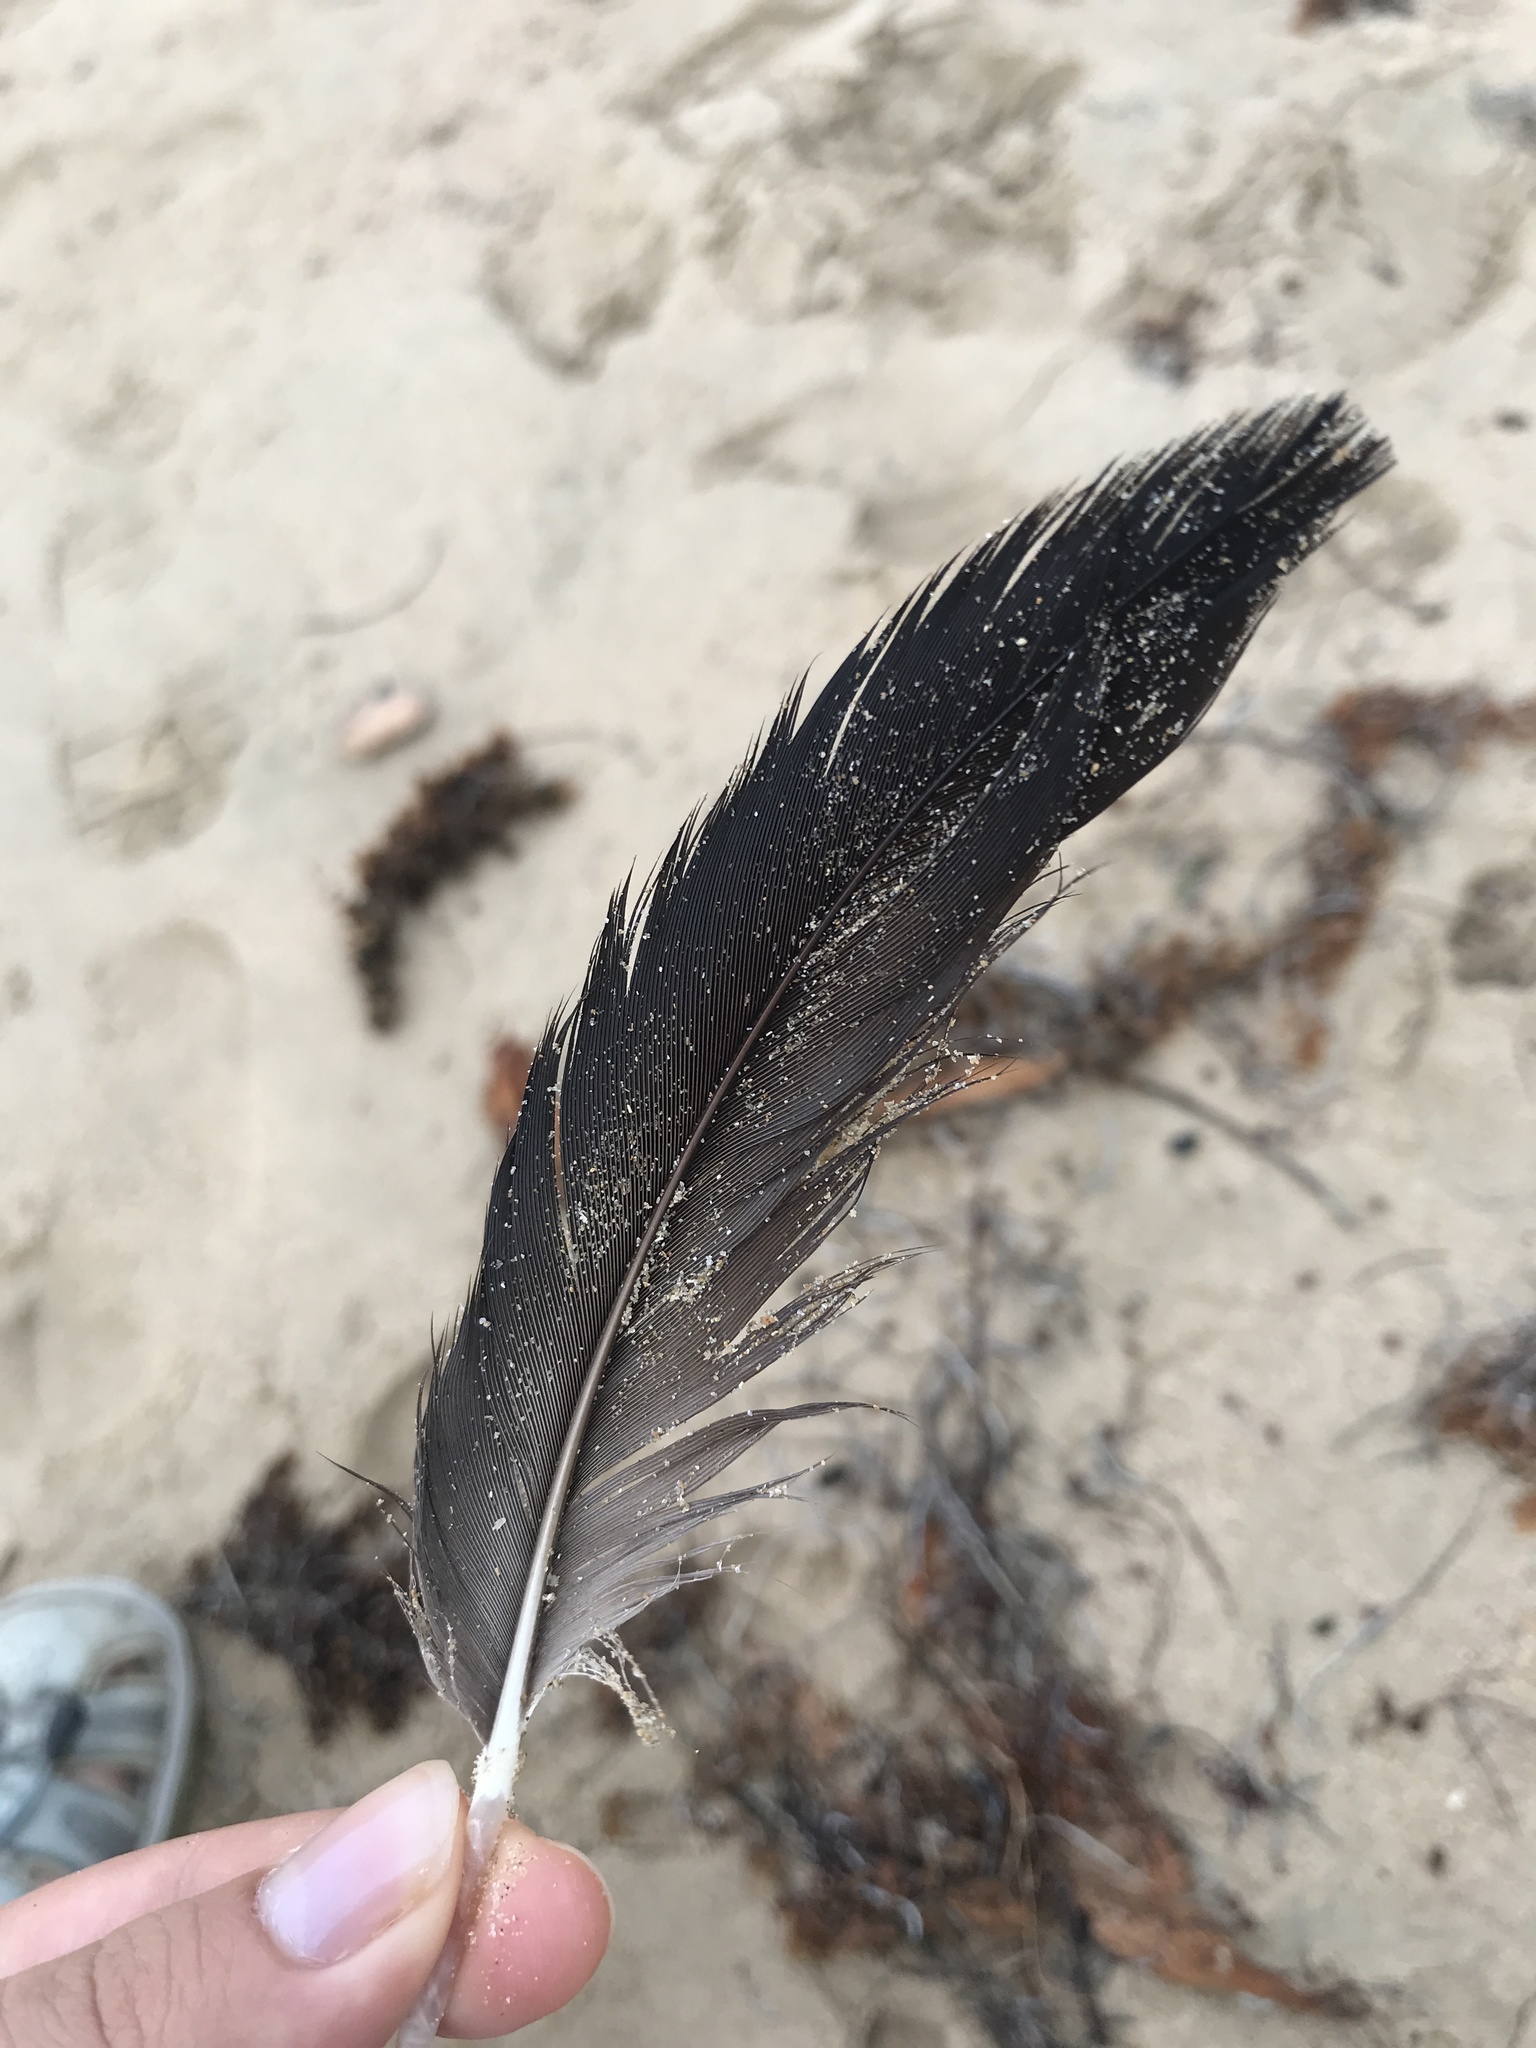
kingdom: Animalia
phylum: Chordata
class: Aves
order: Suliformes
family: Fregatidae
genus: Fregata
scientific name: Fregata magnificens
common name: Magnificent frigatebird
